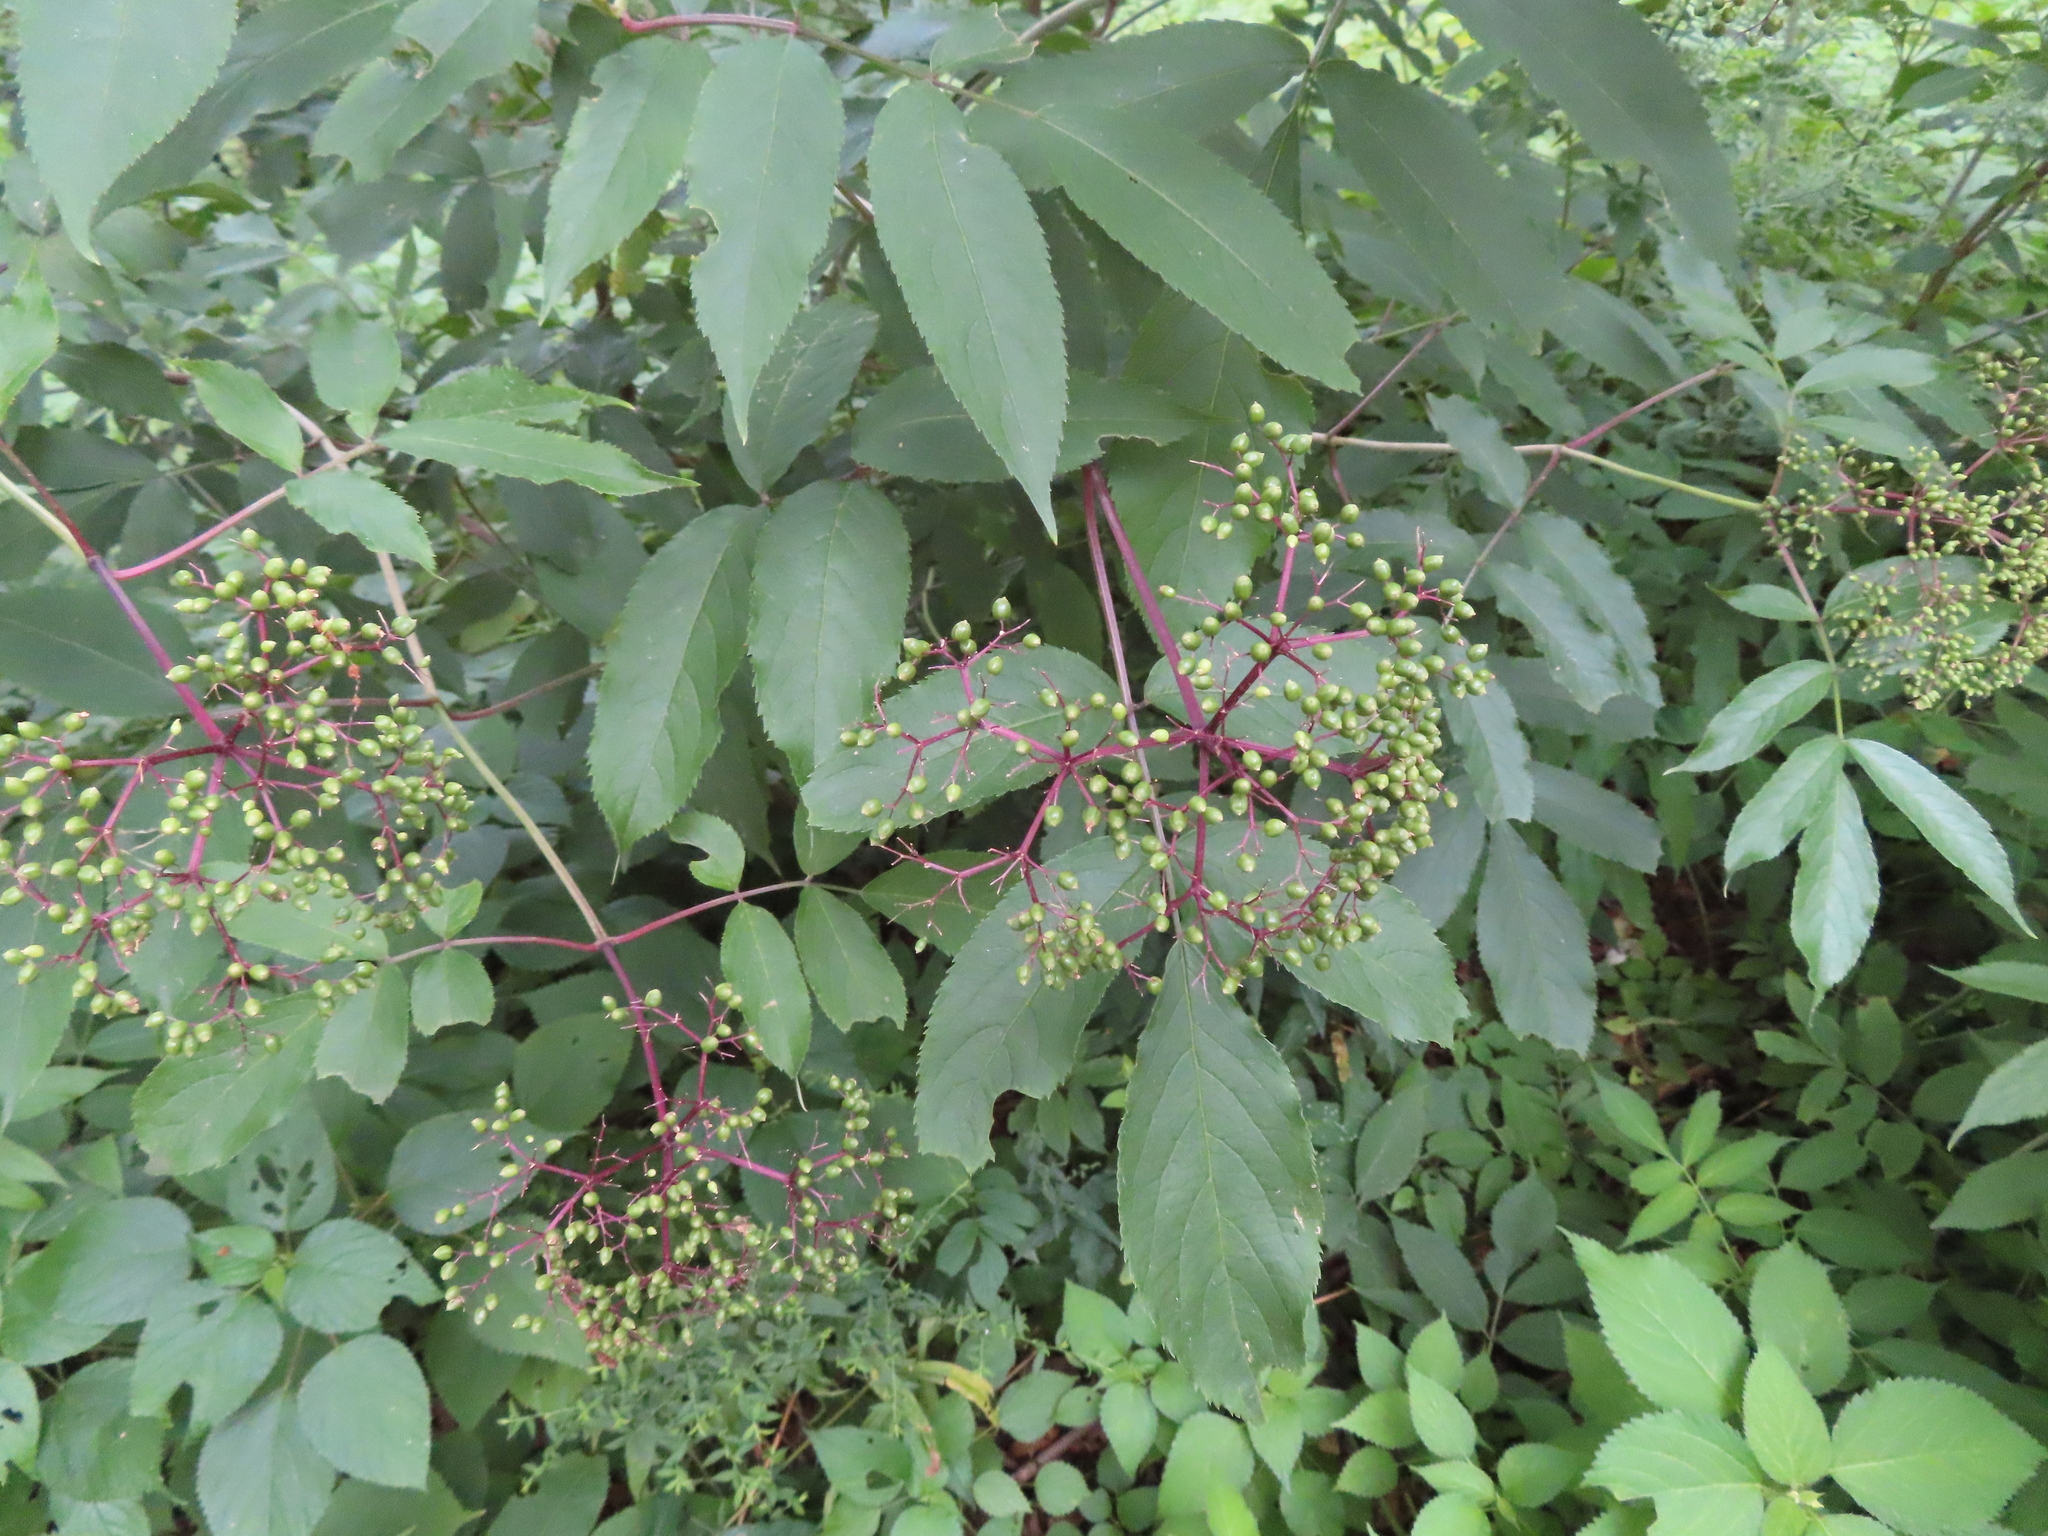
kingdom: Plantae
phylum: Tracheophyta
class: Magnoliopsida
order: Dipsacales
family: Viburnaceae
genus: Sambucus
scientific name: Sambucus canadensis
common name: American elder
